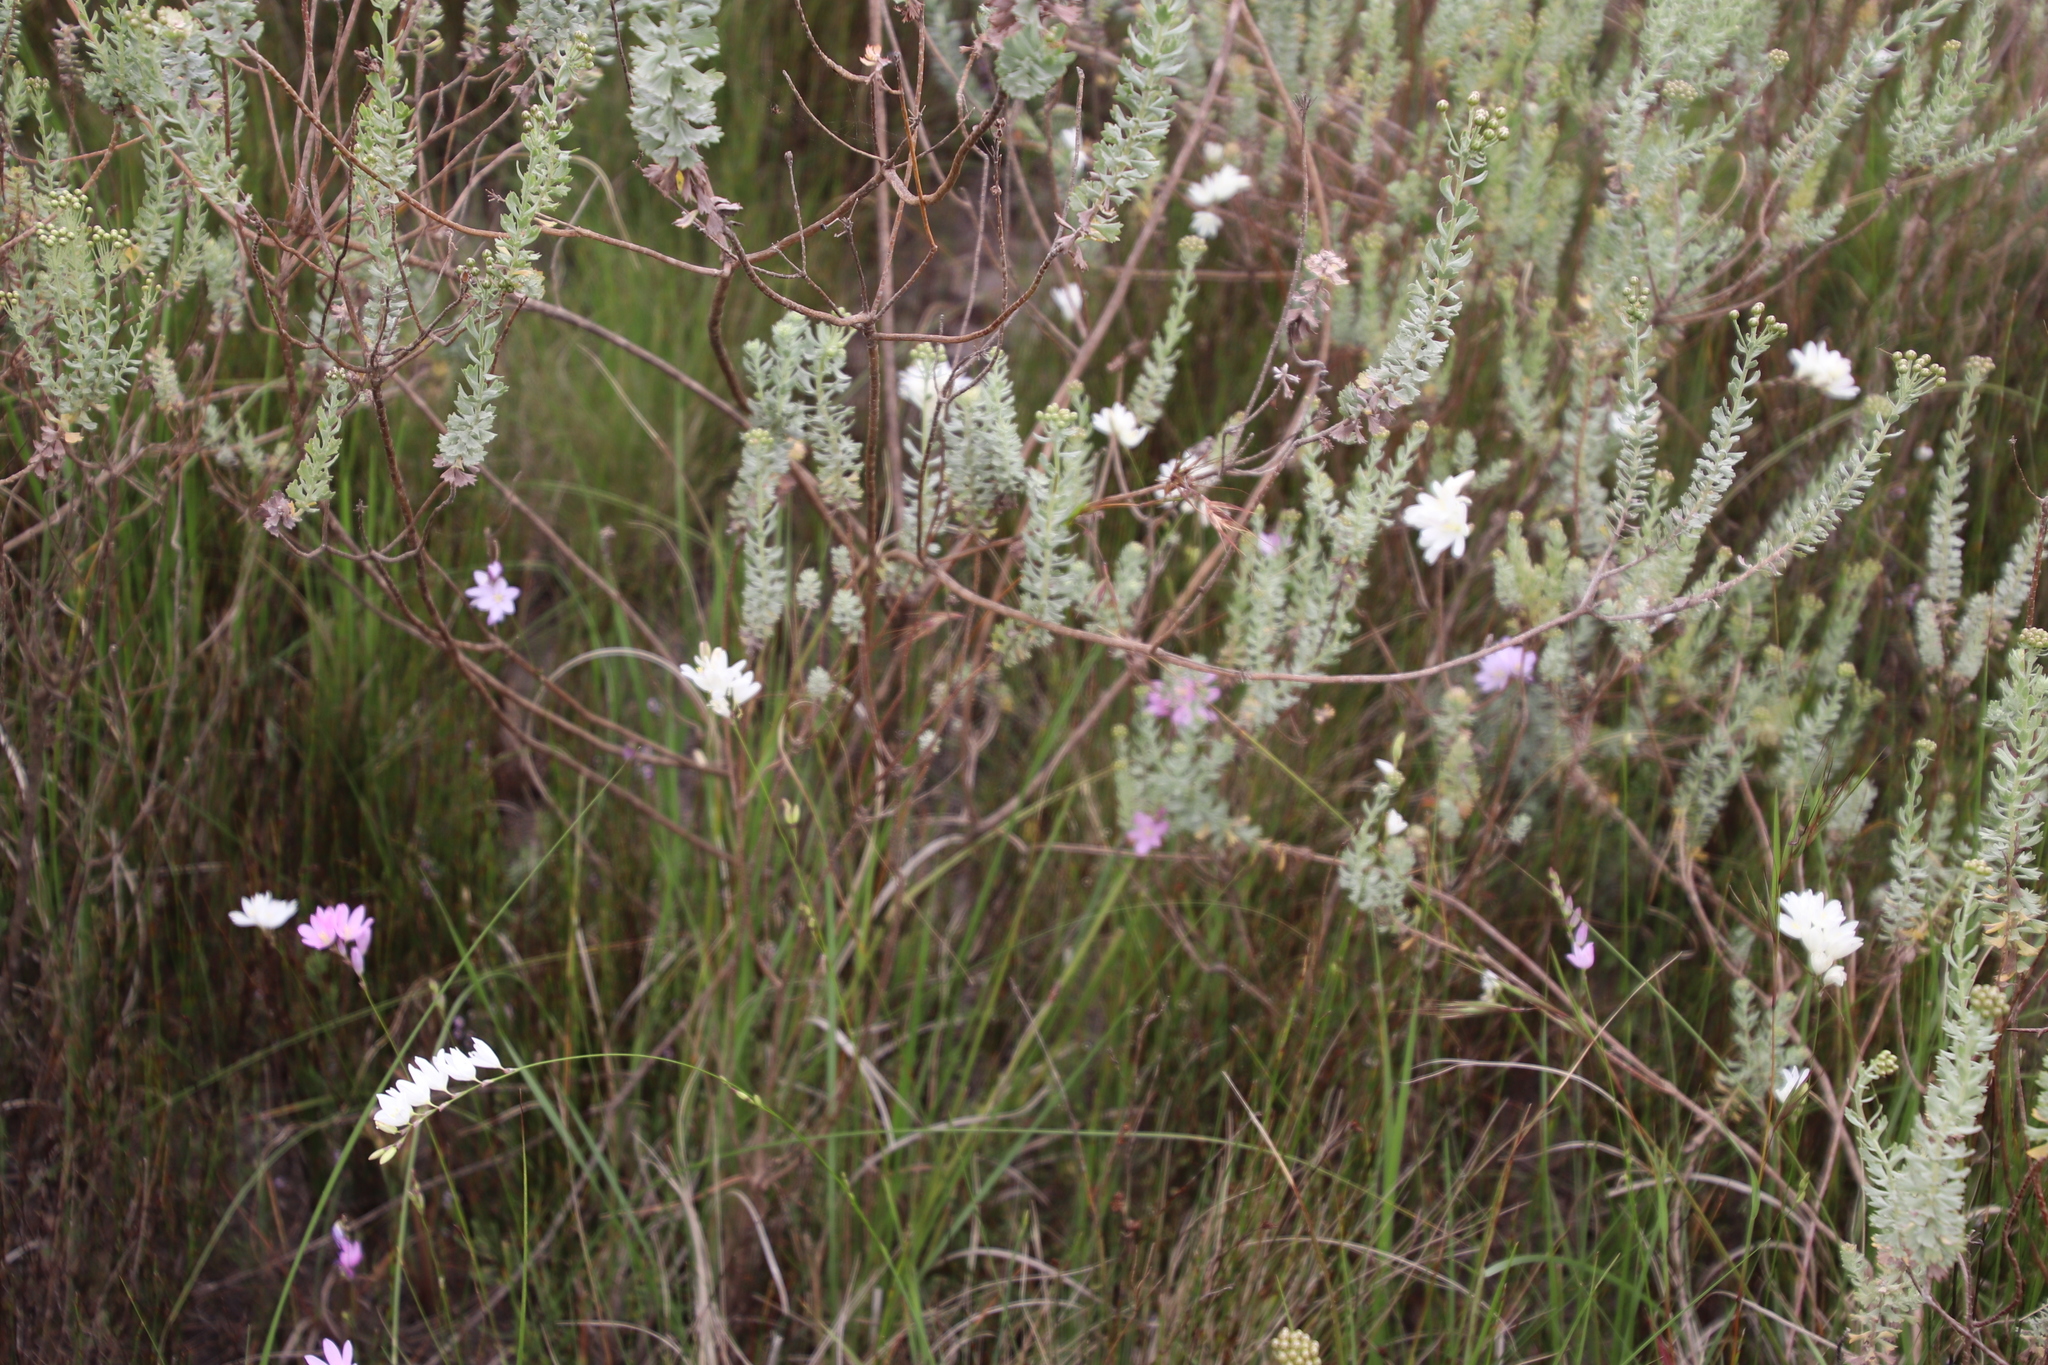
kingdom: Plantae
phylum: Tracheophyta
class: Magnoliopsida
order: Asterales
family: Asteraceae
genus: Athanasia
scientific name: Athanasia trifurcata
